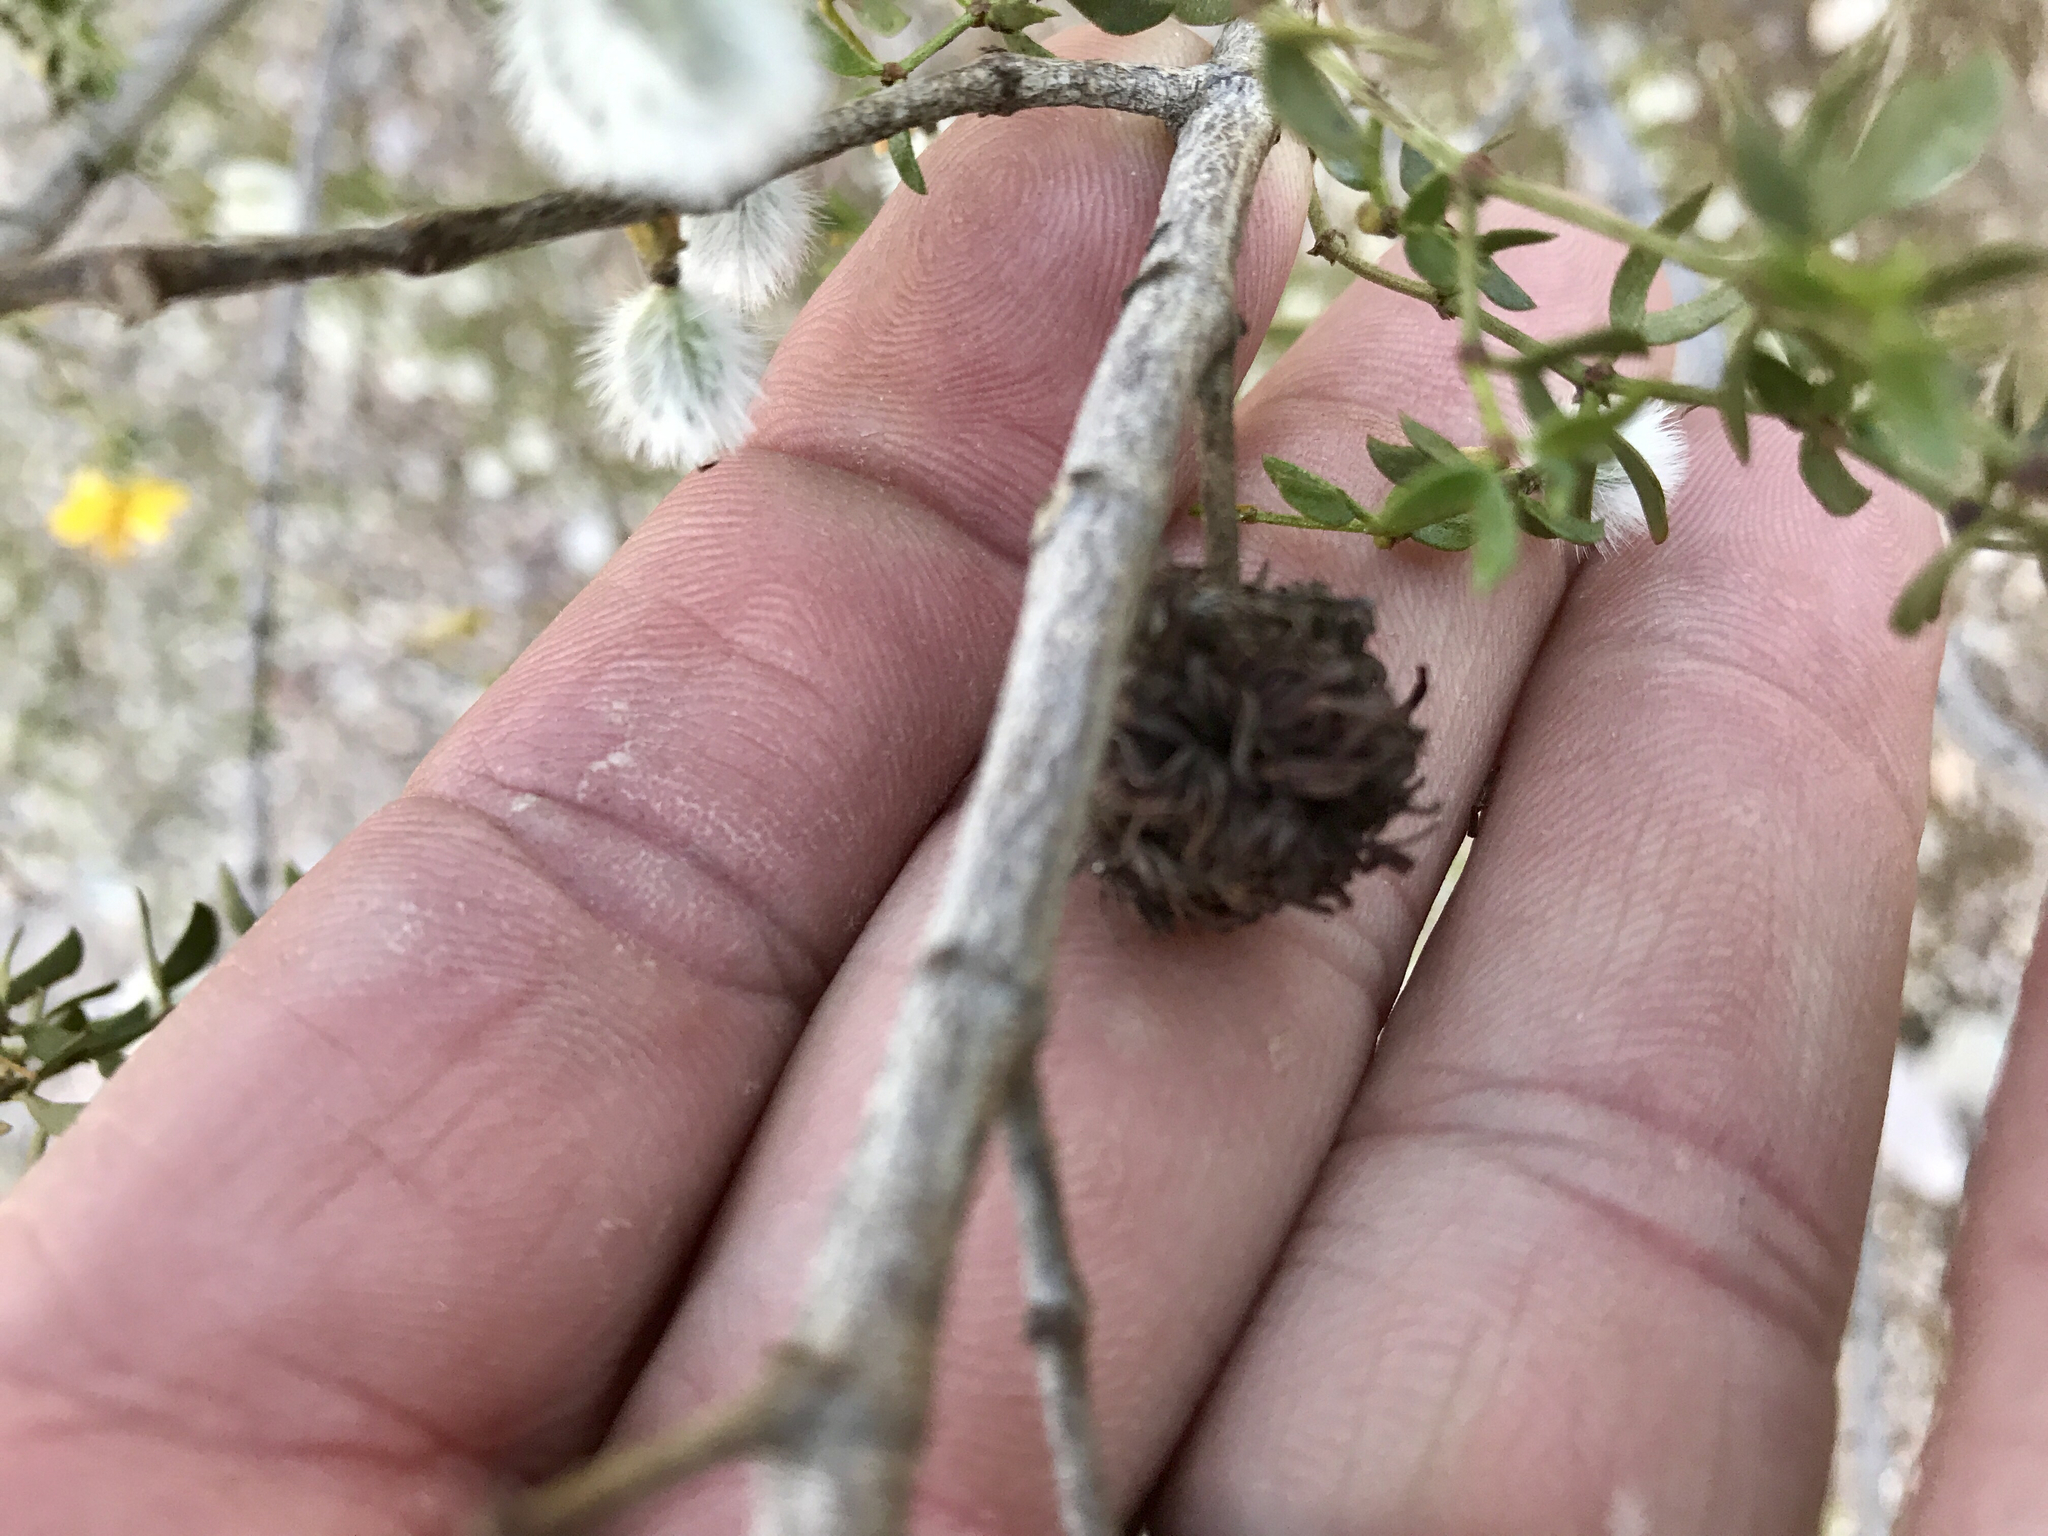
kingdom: Animalia
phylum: Arthropoda
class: Insecta
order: Diptera
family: Cecidomyiidae
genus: Asphondylia
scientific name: Asphondylia auripila
